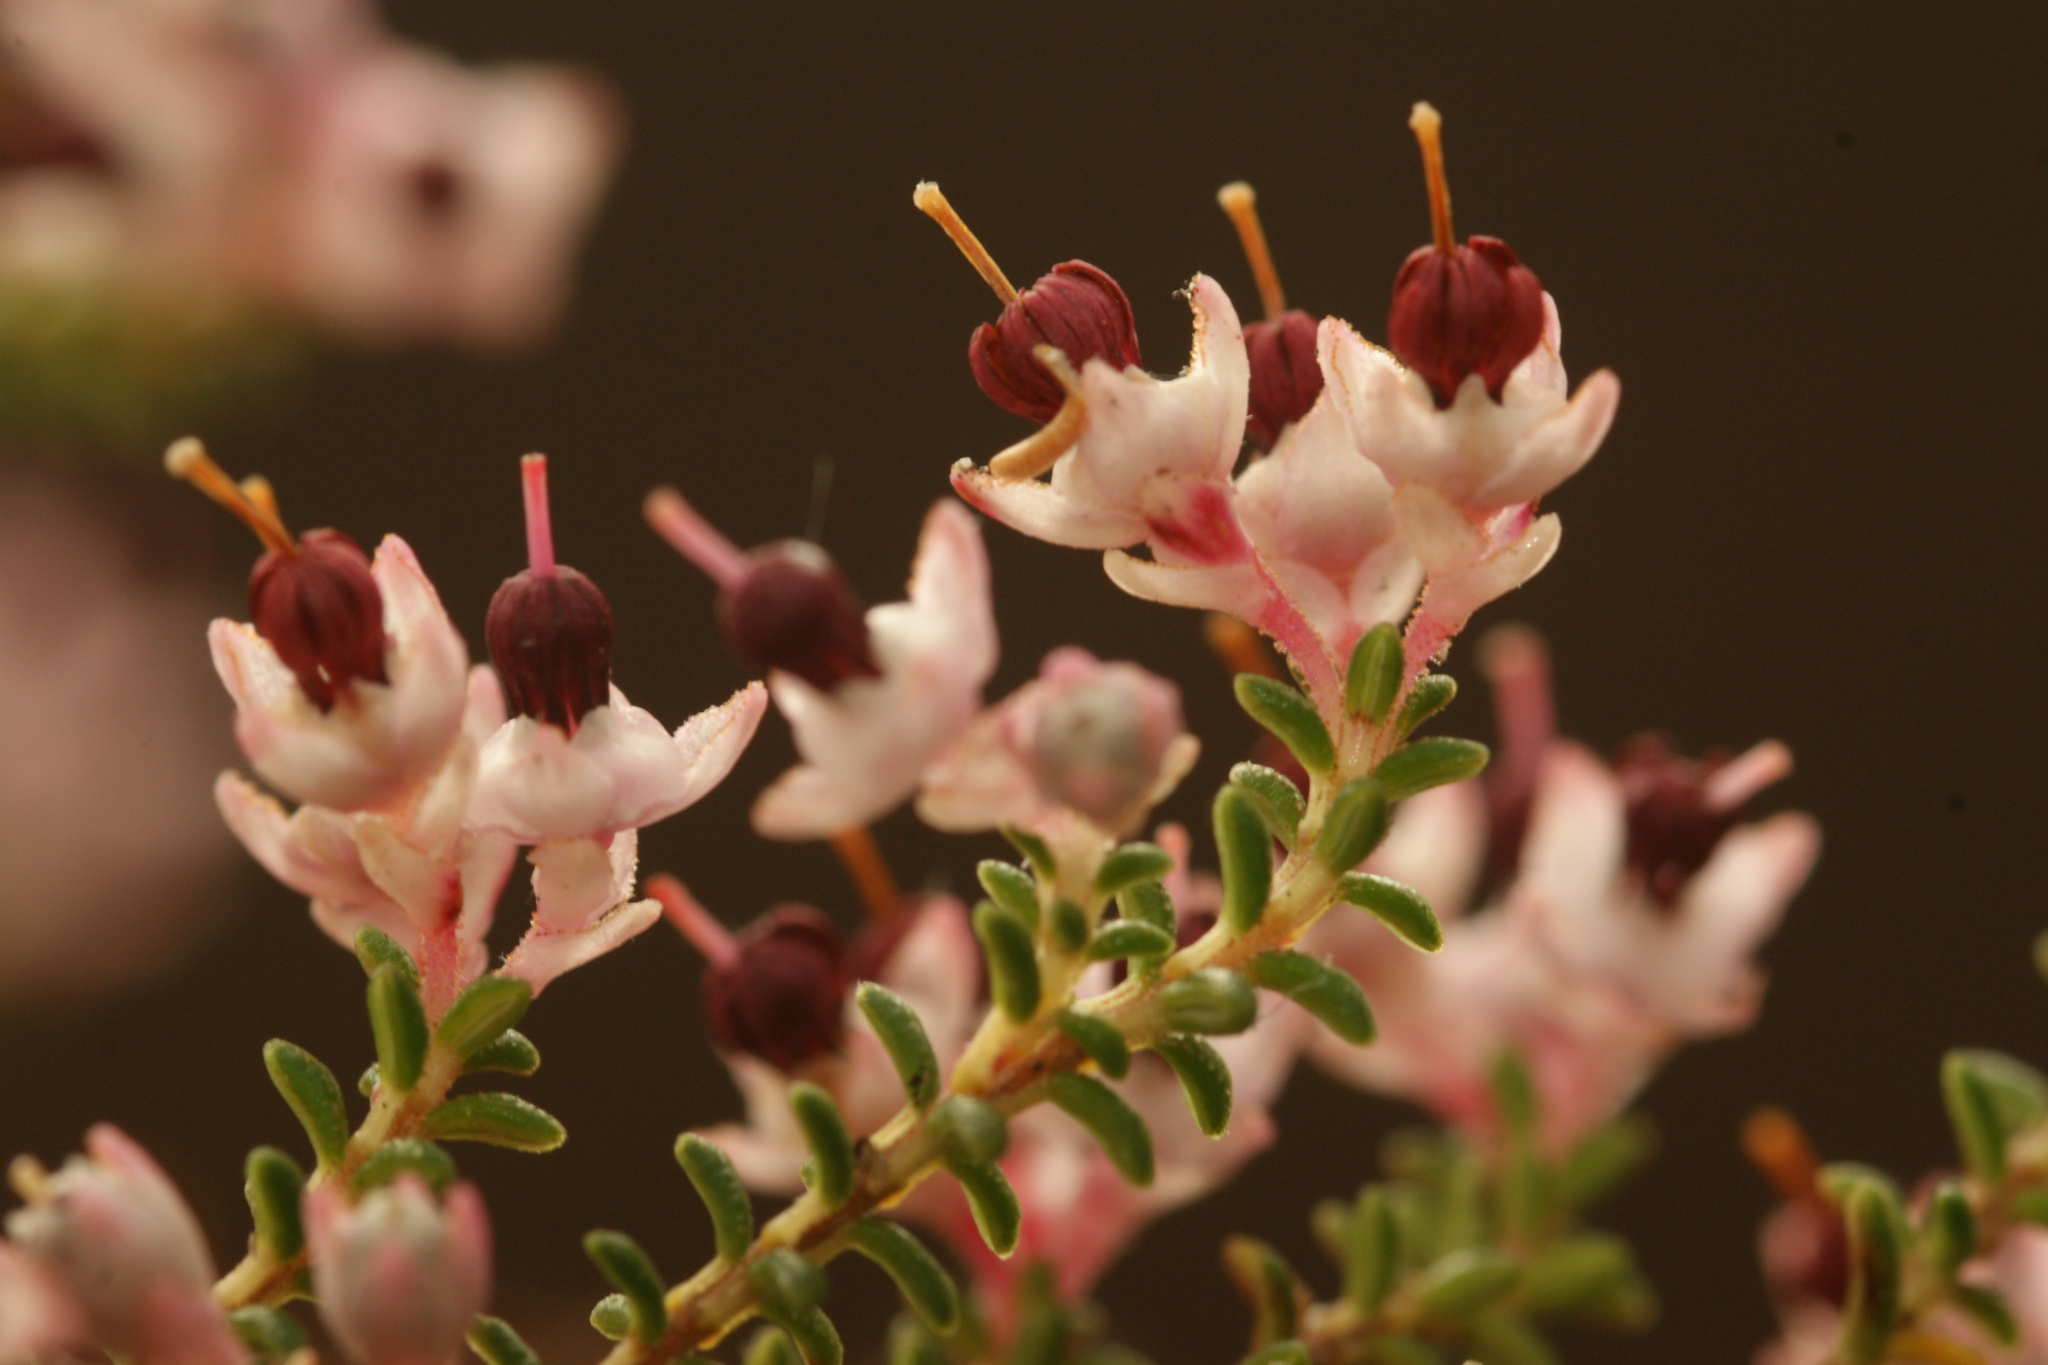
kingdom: Plantae
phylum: Tracheophyta
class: Magnoliopsida
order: Ericales
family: Ericaceae
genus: Erica
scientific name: Erica placentiflora
